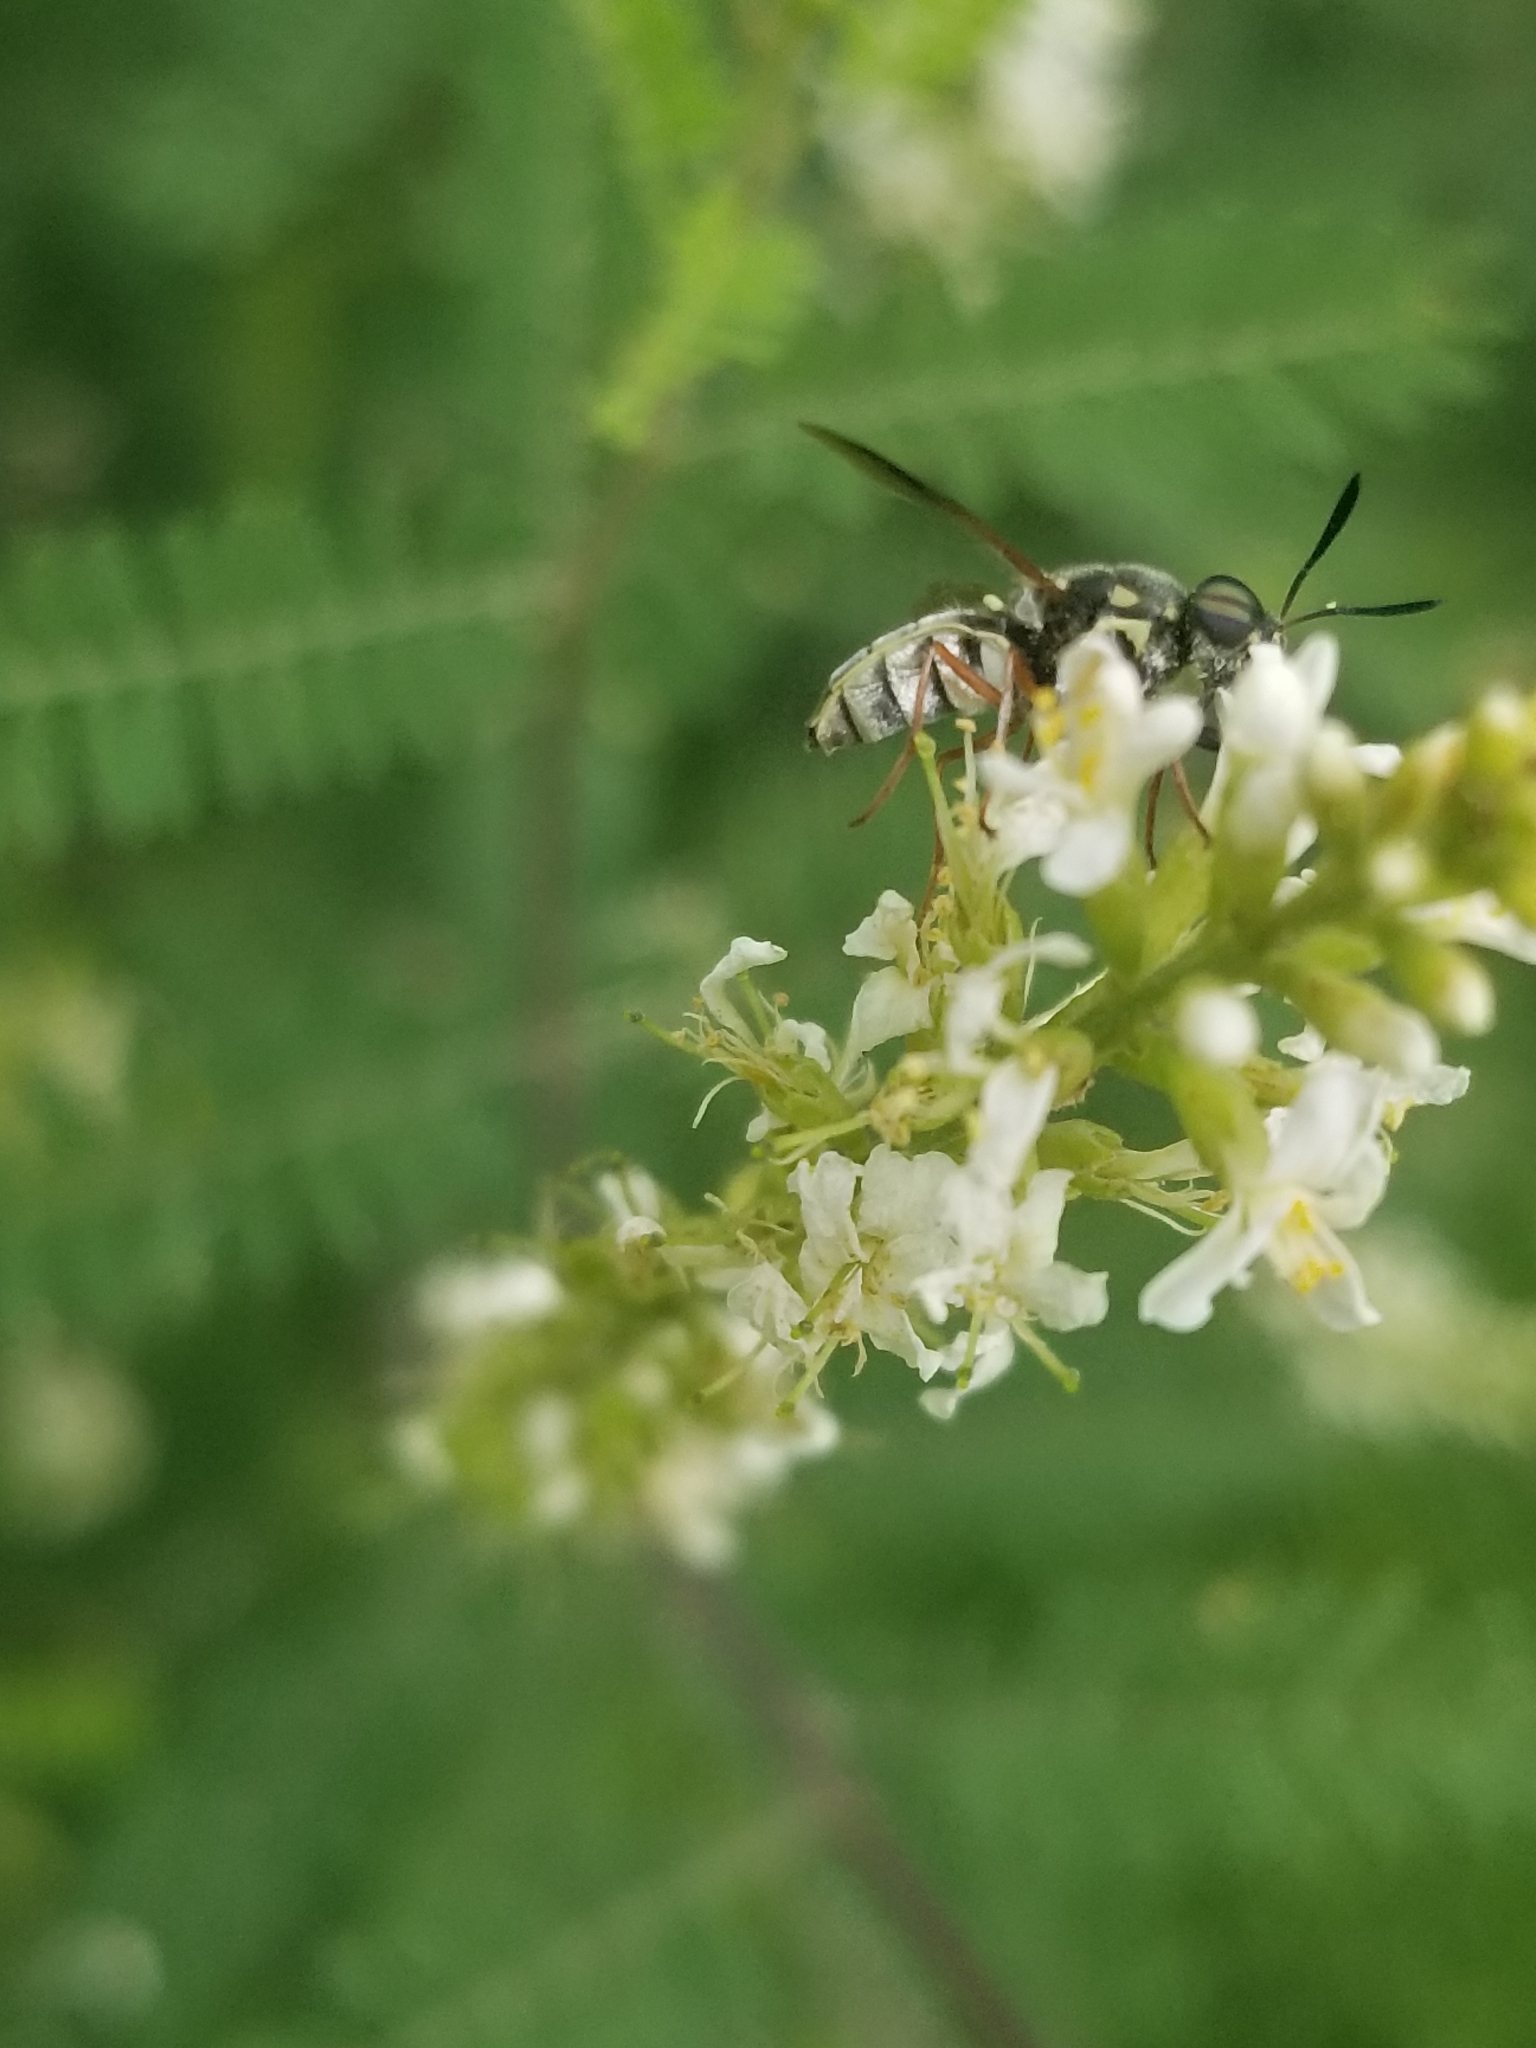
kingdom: Animalia
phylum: Arthropoda
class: Insecta
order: Diptera
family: Stratiomyidae
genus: Hoplitimyia
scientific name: Hoplitimyia constans
